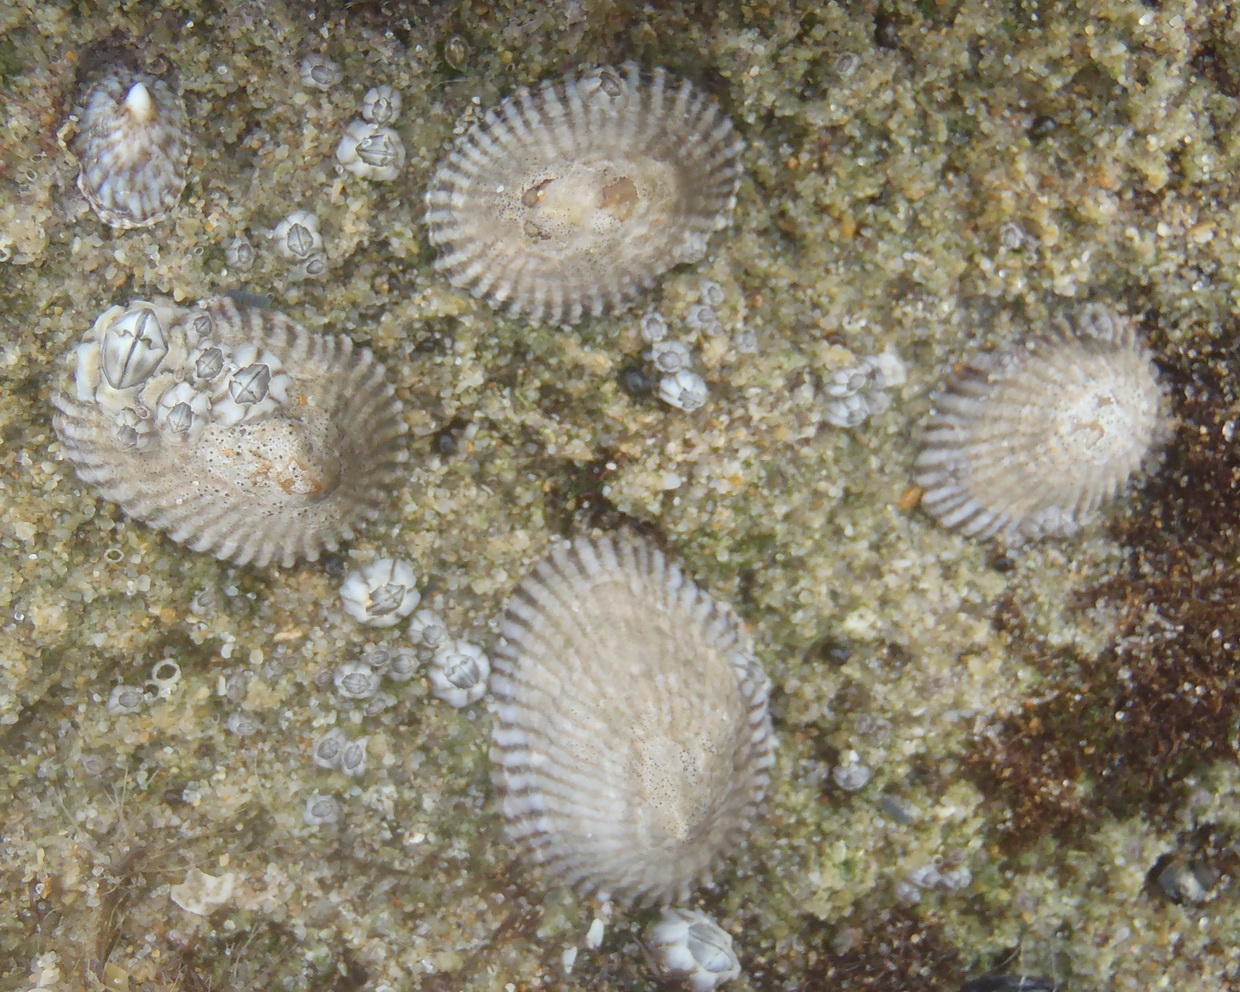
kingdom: Animalia
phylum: Mollusca
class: Gastropoda
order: Siphonariida
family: Siphonariidae
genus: Siphonaria
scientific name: Siphonaria capensis
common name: Cape false limpet
